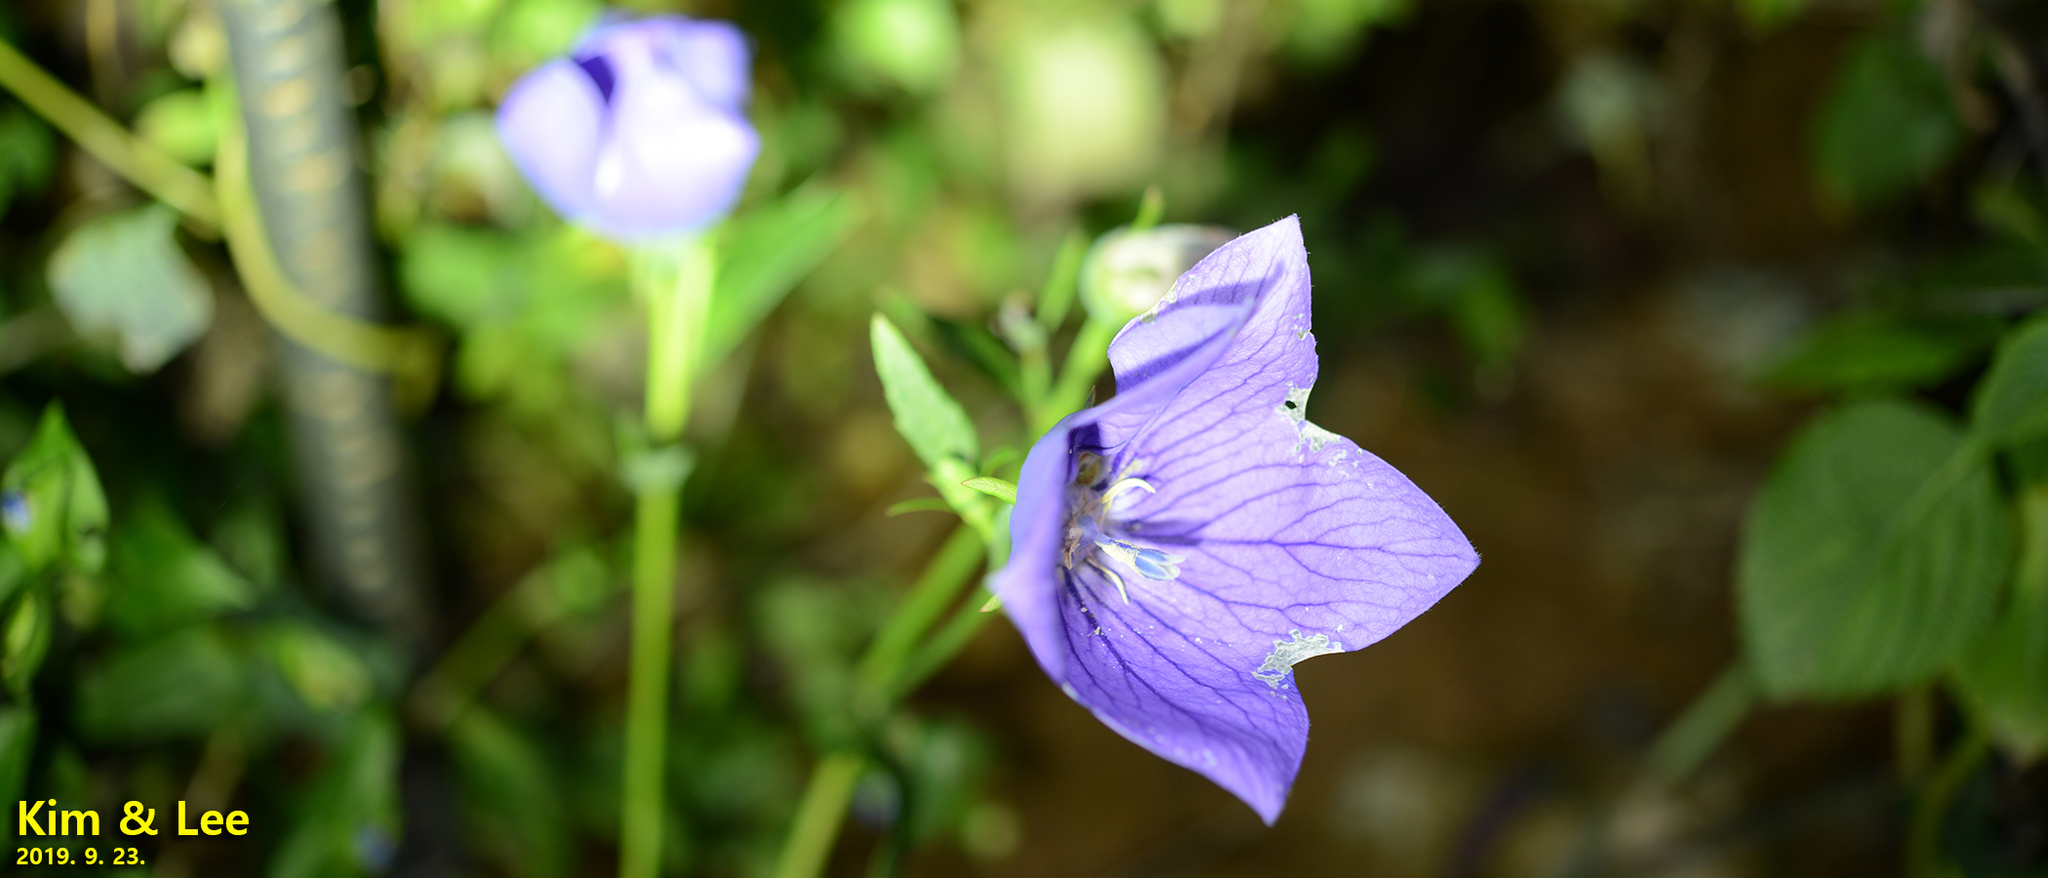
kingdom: Plantae
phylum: Tracheophyta
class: Magnoliopsida
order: Asterales
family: Campanulaceae
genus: Platycodon
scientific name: Platycodon grandiflorus
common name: Balloon-flower
